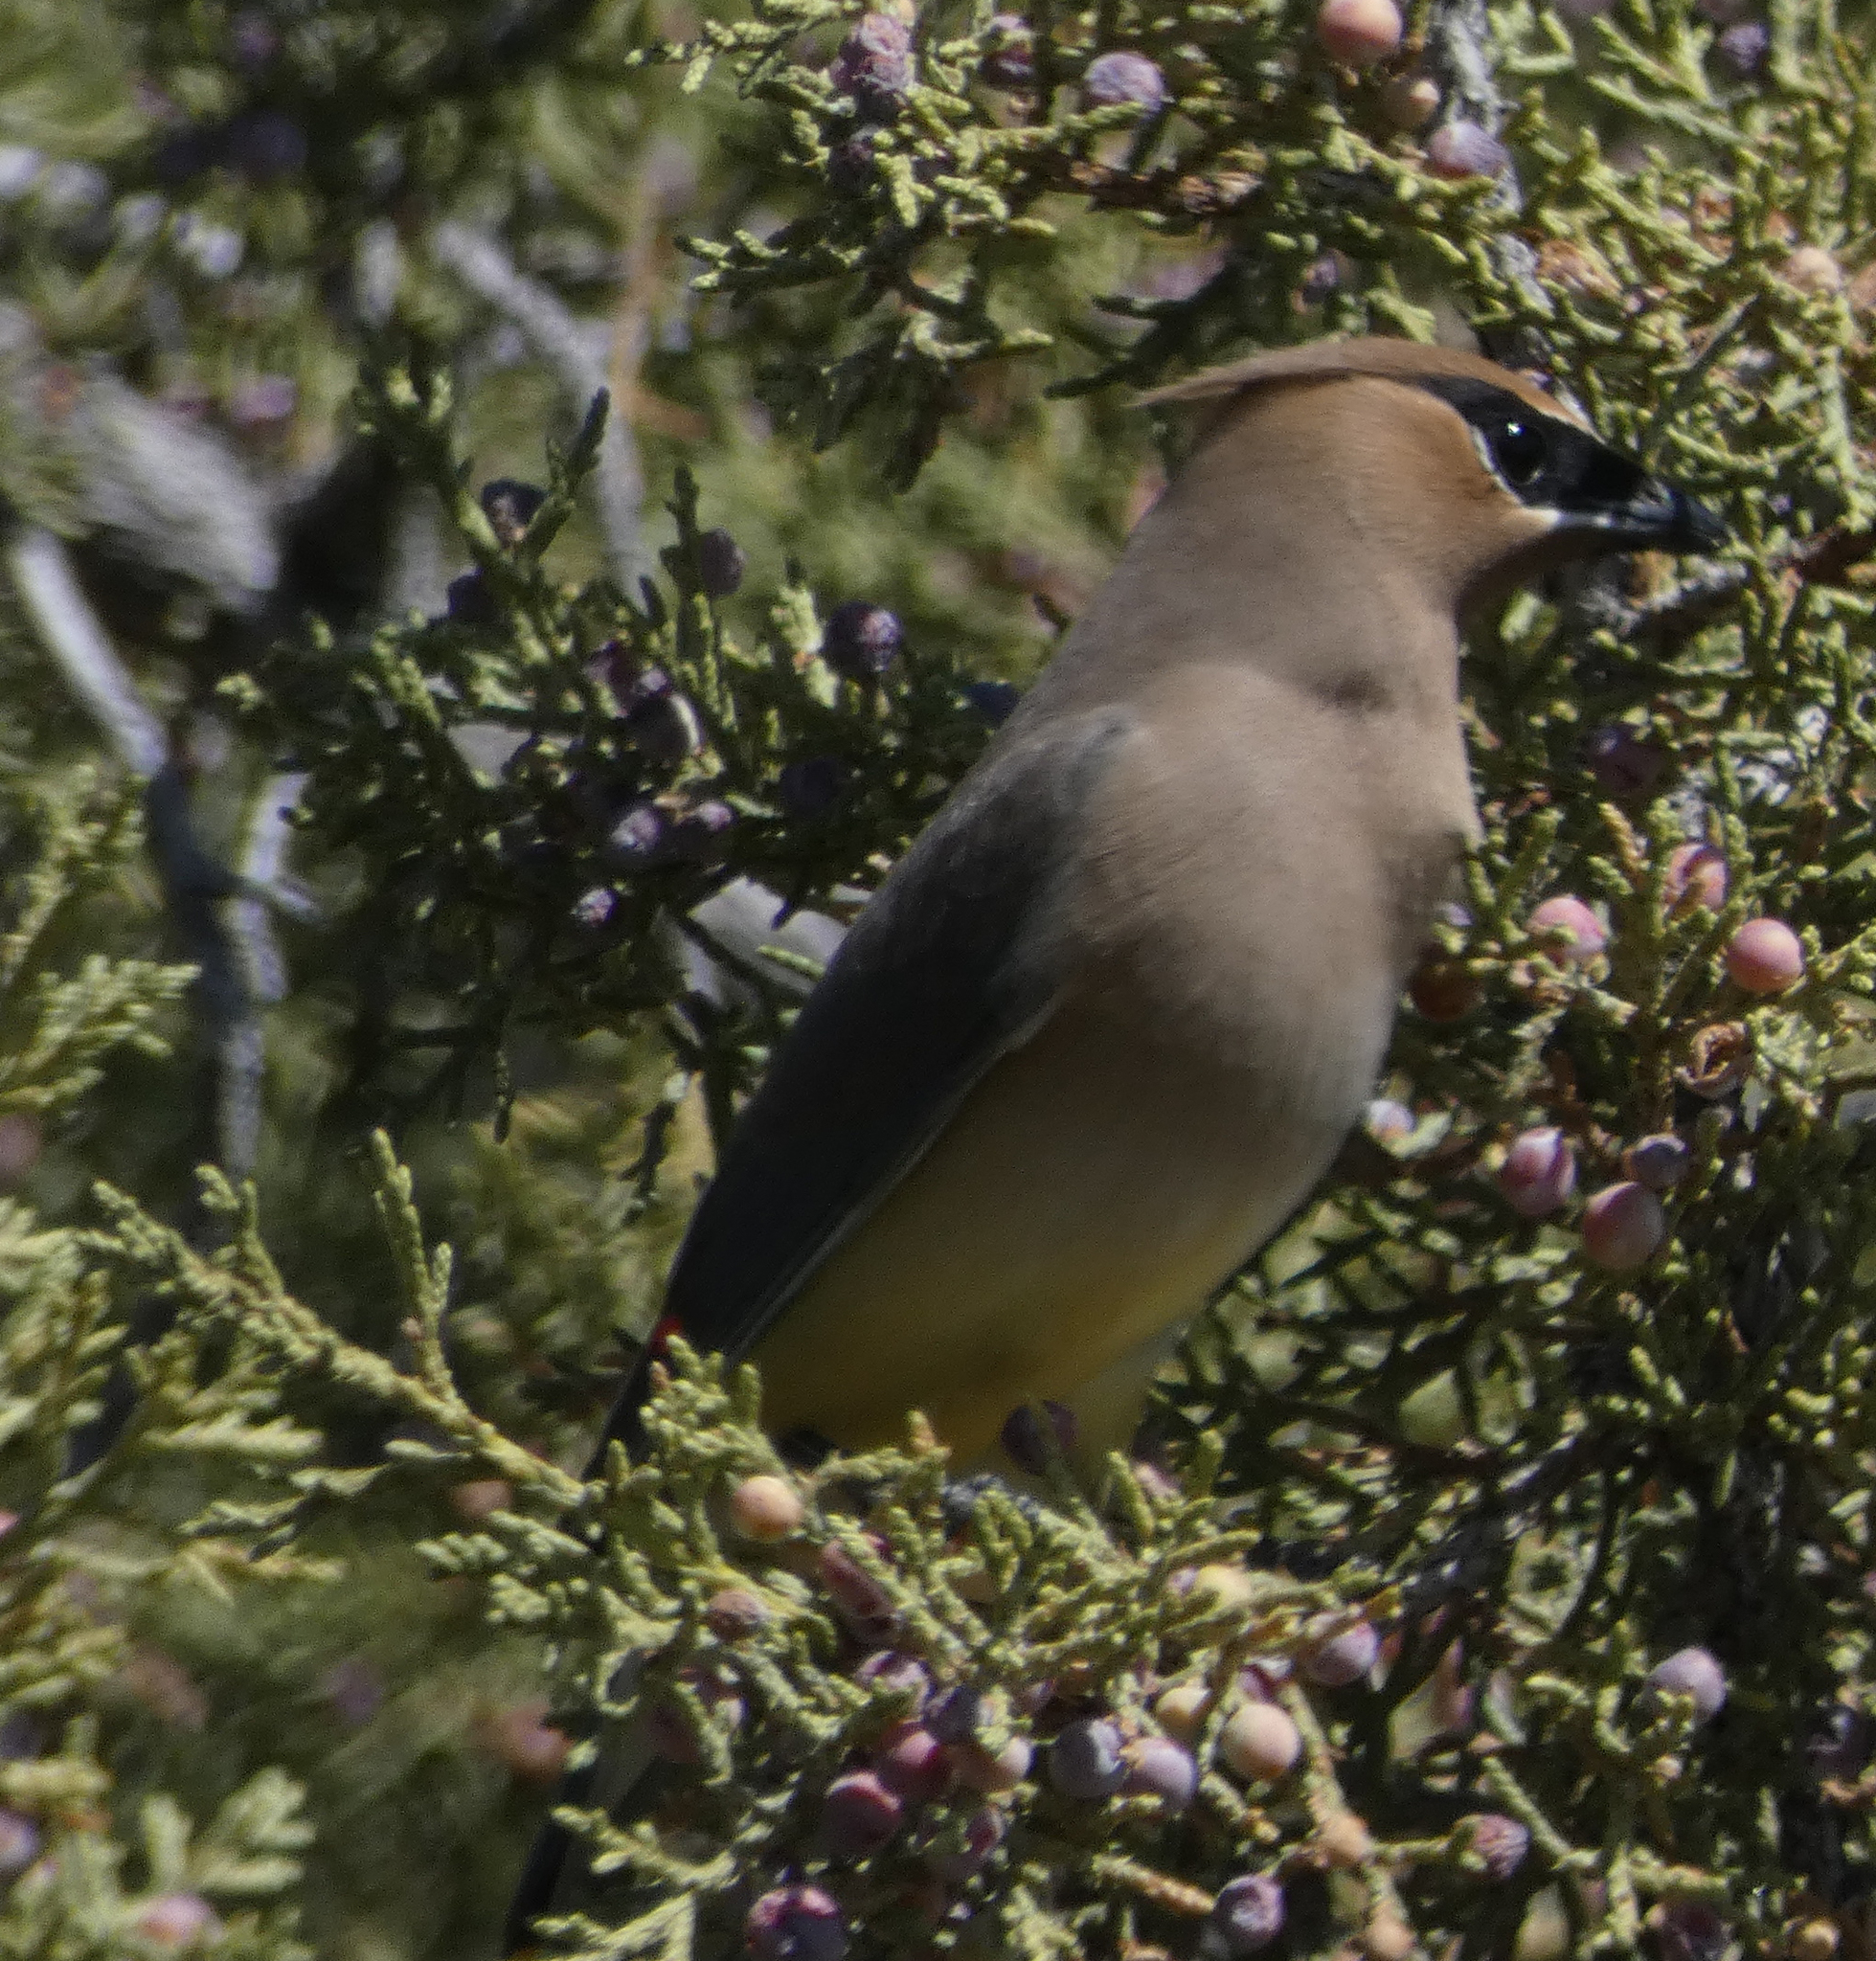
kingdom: Animalia
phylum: Chordata
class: Aves
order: Passeriformes
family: Bombycillidae
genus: Bombycilla
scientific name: Bombycilla cedrorum
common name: Cedar waxwing
